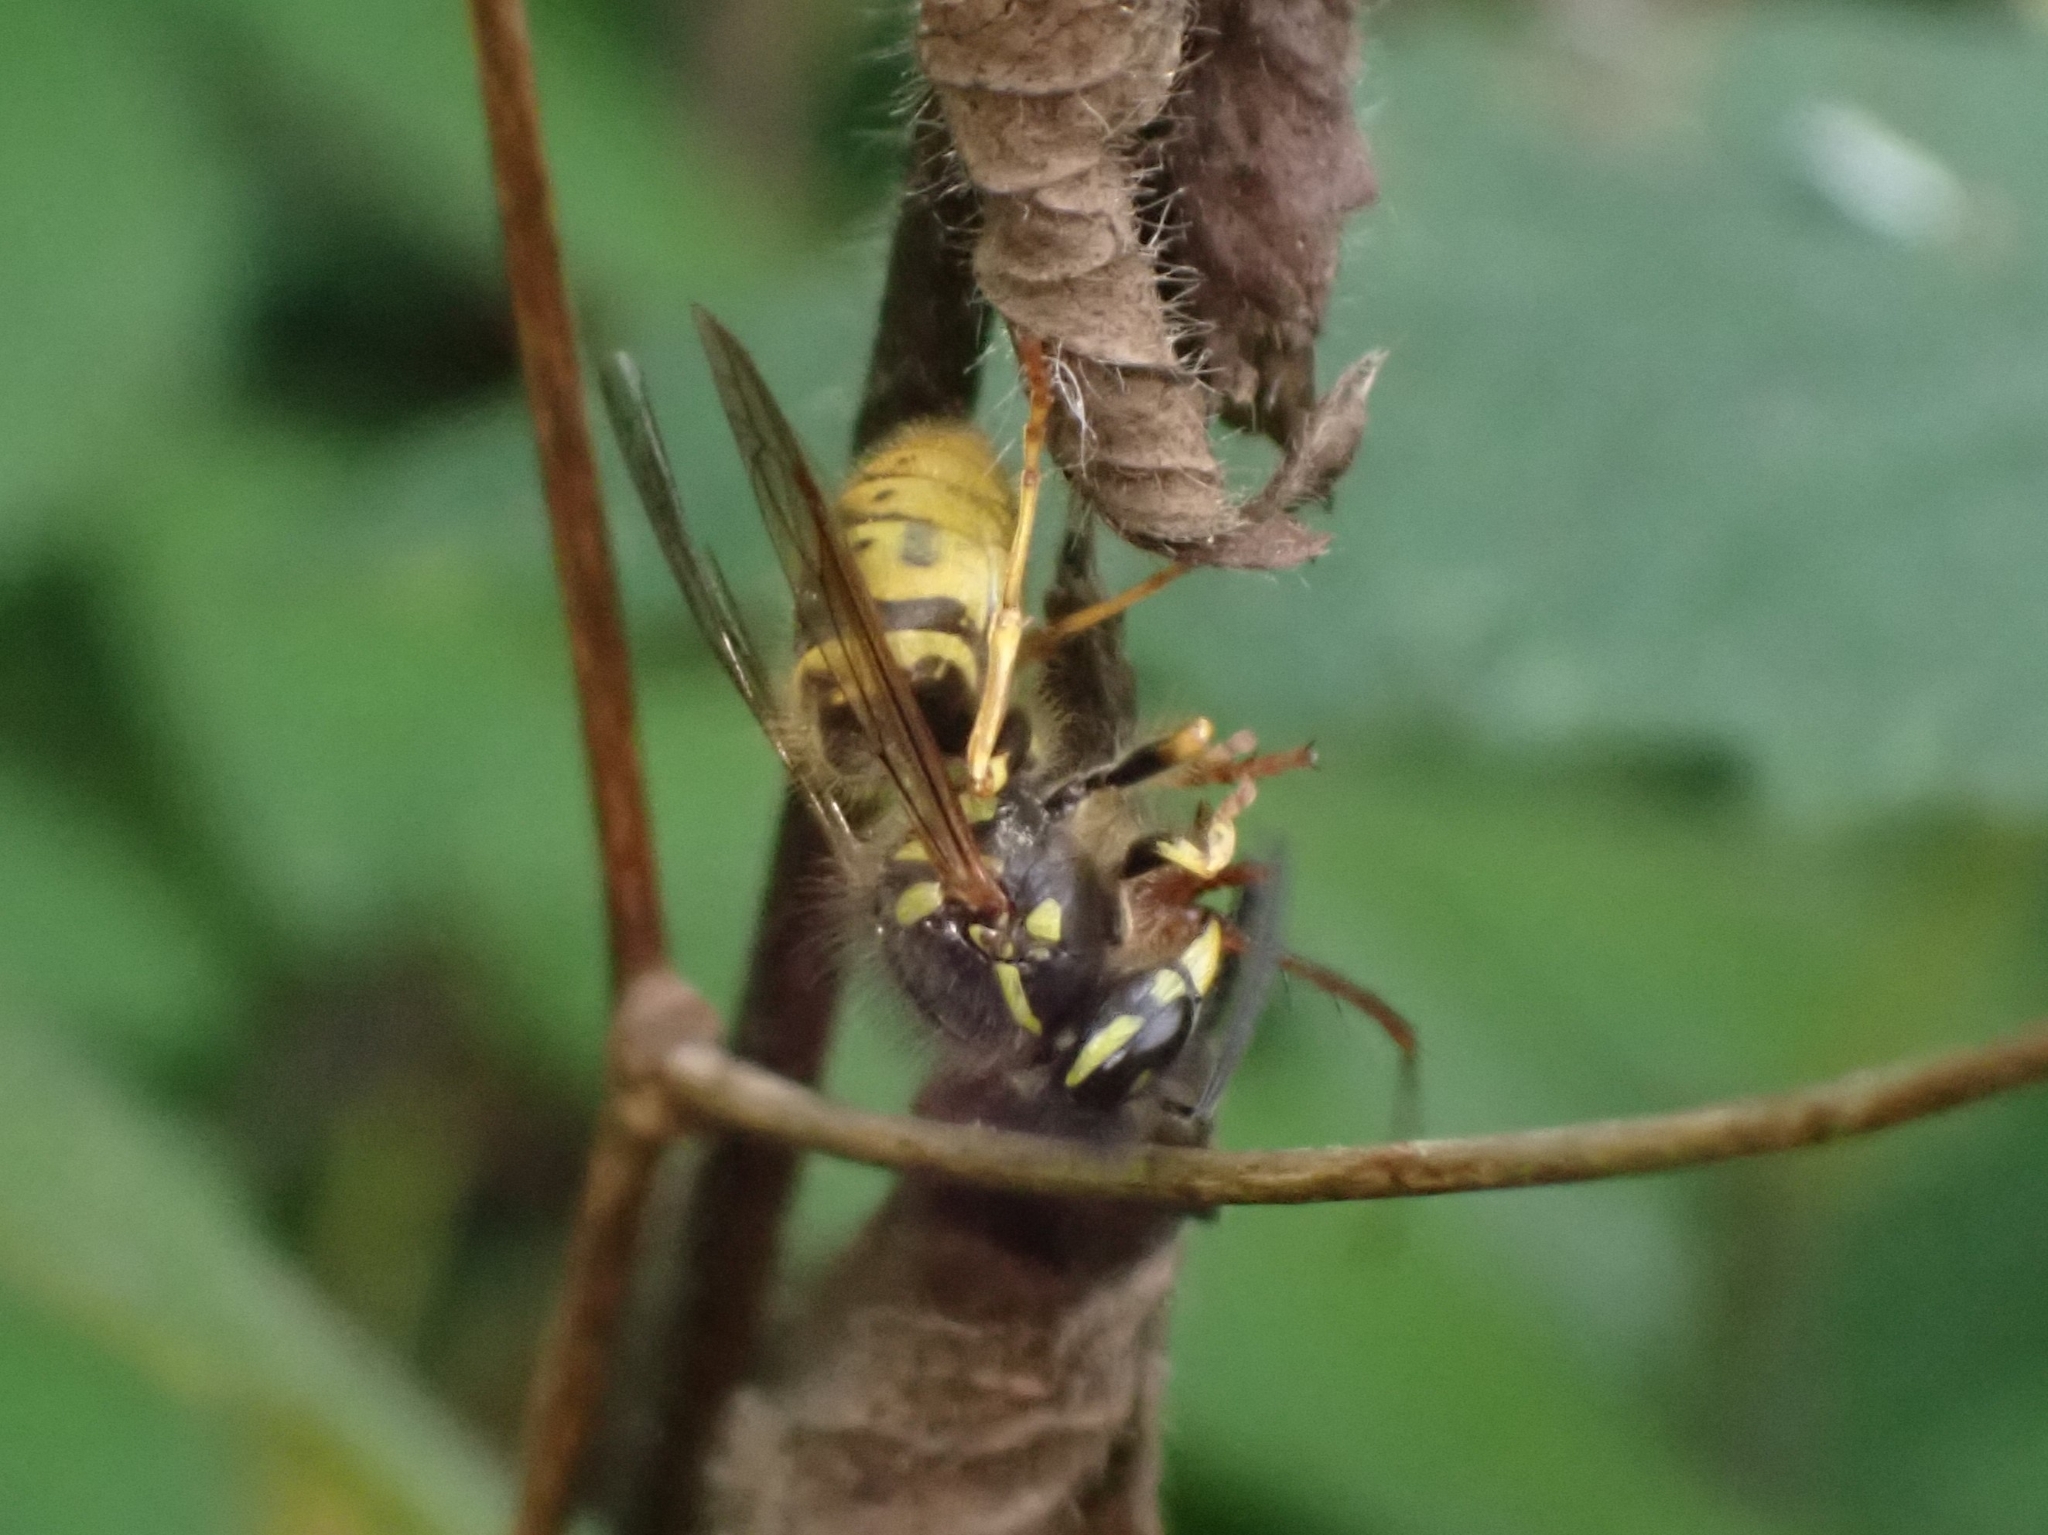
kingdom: Animalia
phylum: Arthropoda
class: Insecta
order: Hymenoptera
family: Vespidae
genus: Vespula
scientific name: Vespula vulgaris
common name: Common wasp
